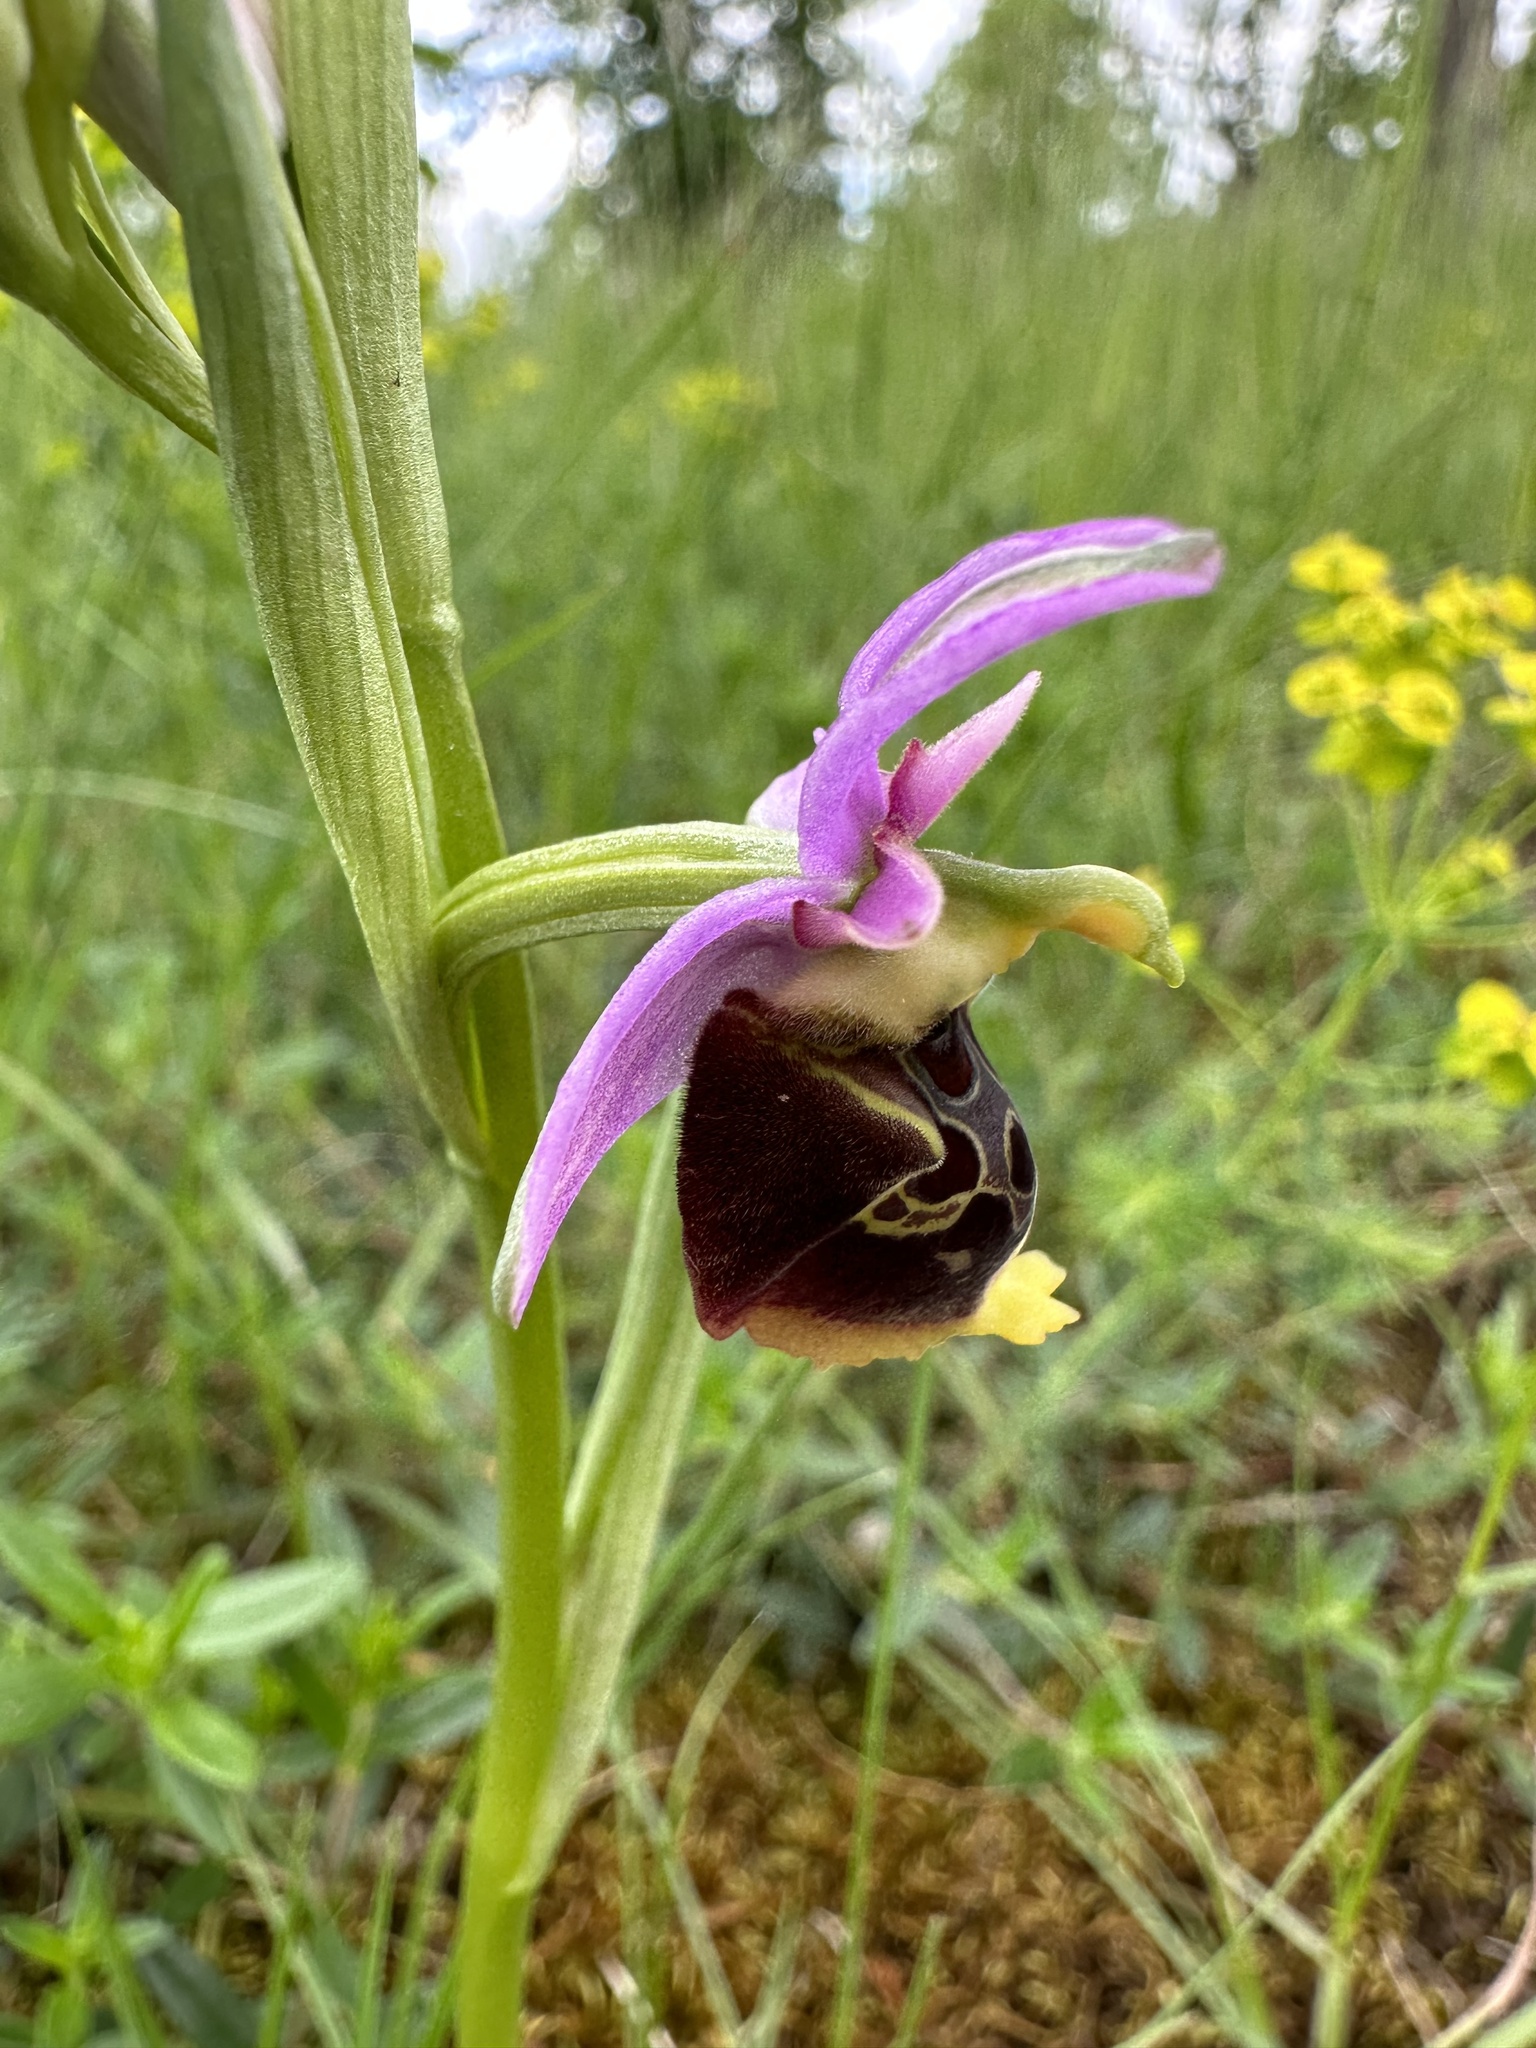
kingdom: Plantae
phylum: Tracheophyta
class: Liliopsida
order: Asparagales
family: Orchidaceae
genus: Ophrys
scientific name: Ophrys holosericea
